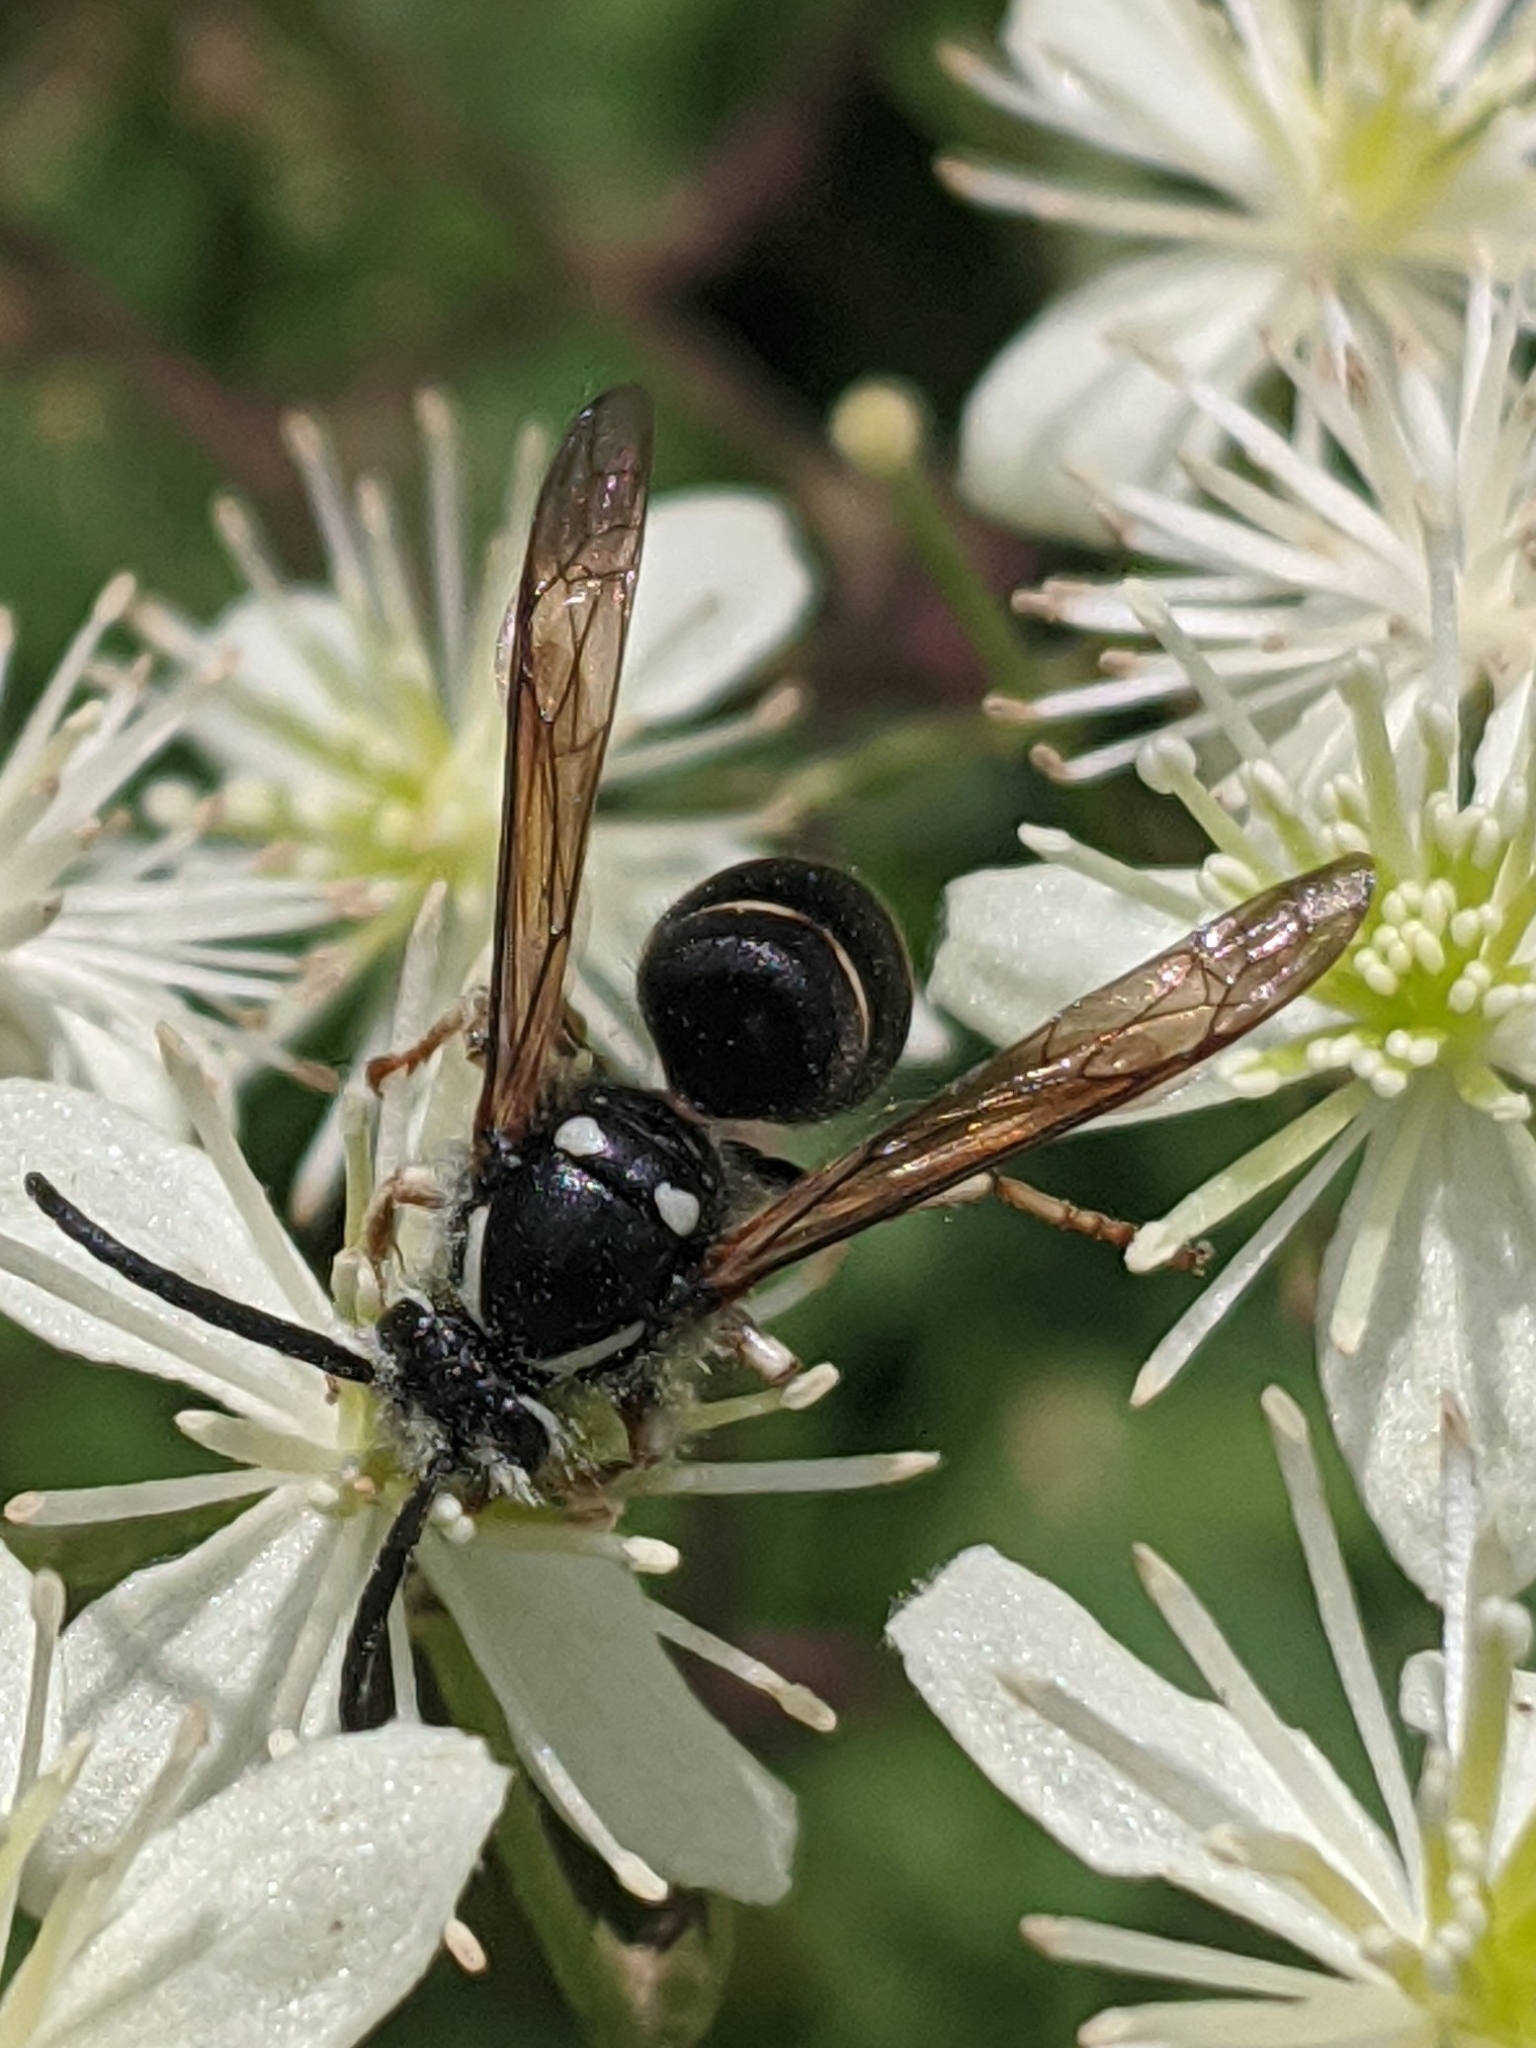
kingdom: Animalia
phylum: Arthropoda
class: Insecta
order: Hymenoptera
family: Vespidae
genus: Dolichovespula
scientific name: Dolichovespula adulterina
